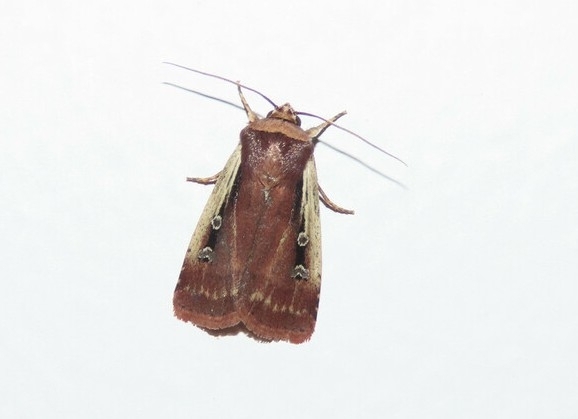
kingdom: Animalia
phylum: Arthropoda
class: Insecta
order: Lepidoptera
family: Noctuidae
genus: Ochropleura
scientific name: Ochropleura implecta
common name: Flame-shouldered dart
